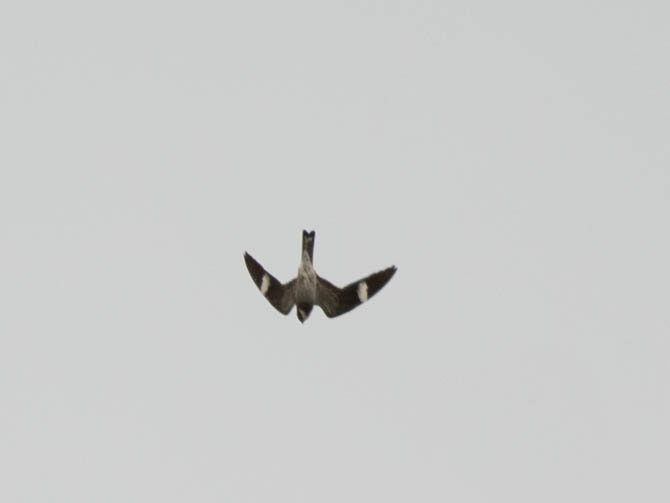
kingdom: Animalia
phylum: Chordata
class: Aves
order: Caprimulgiformes
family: Caprimulgidae
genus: Chordeiles
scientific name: Chordeiles minor
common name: Common nighthawk
